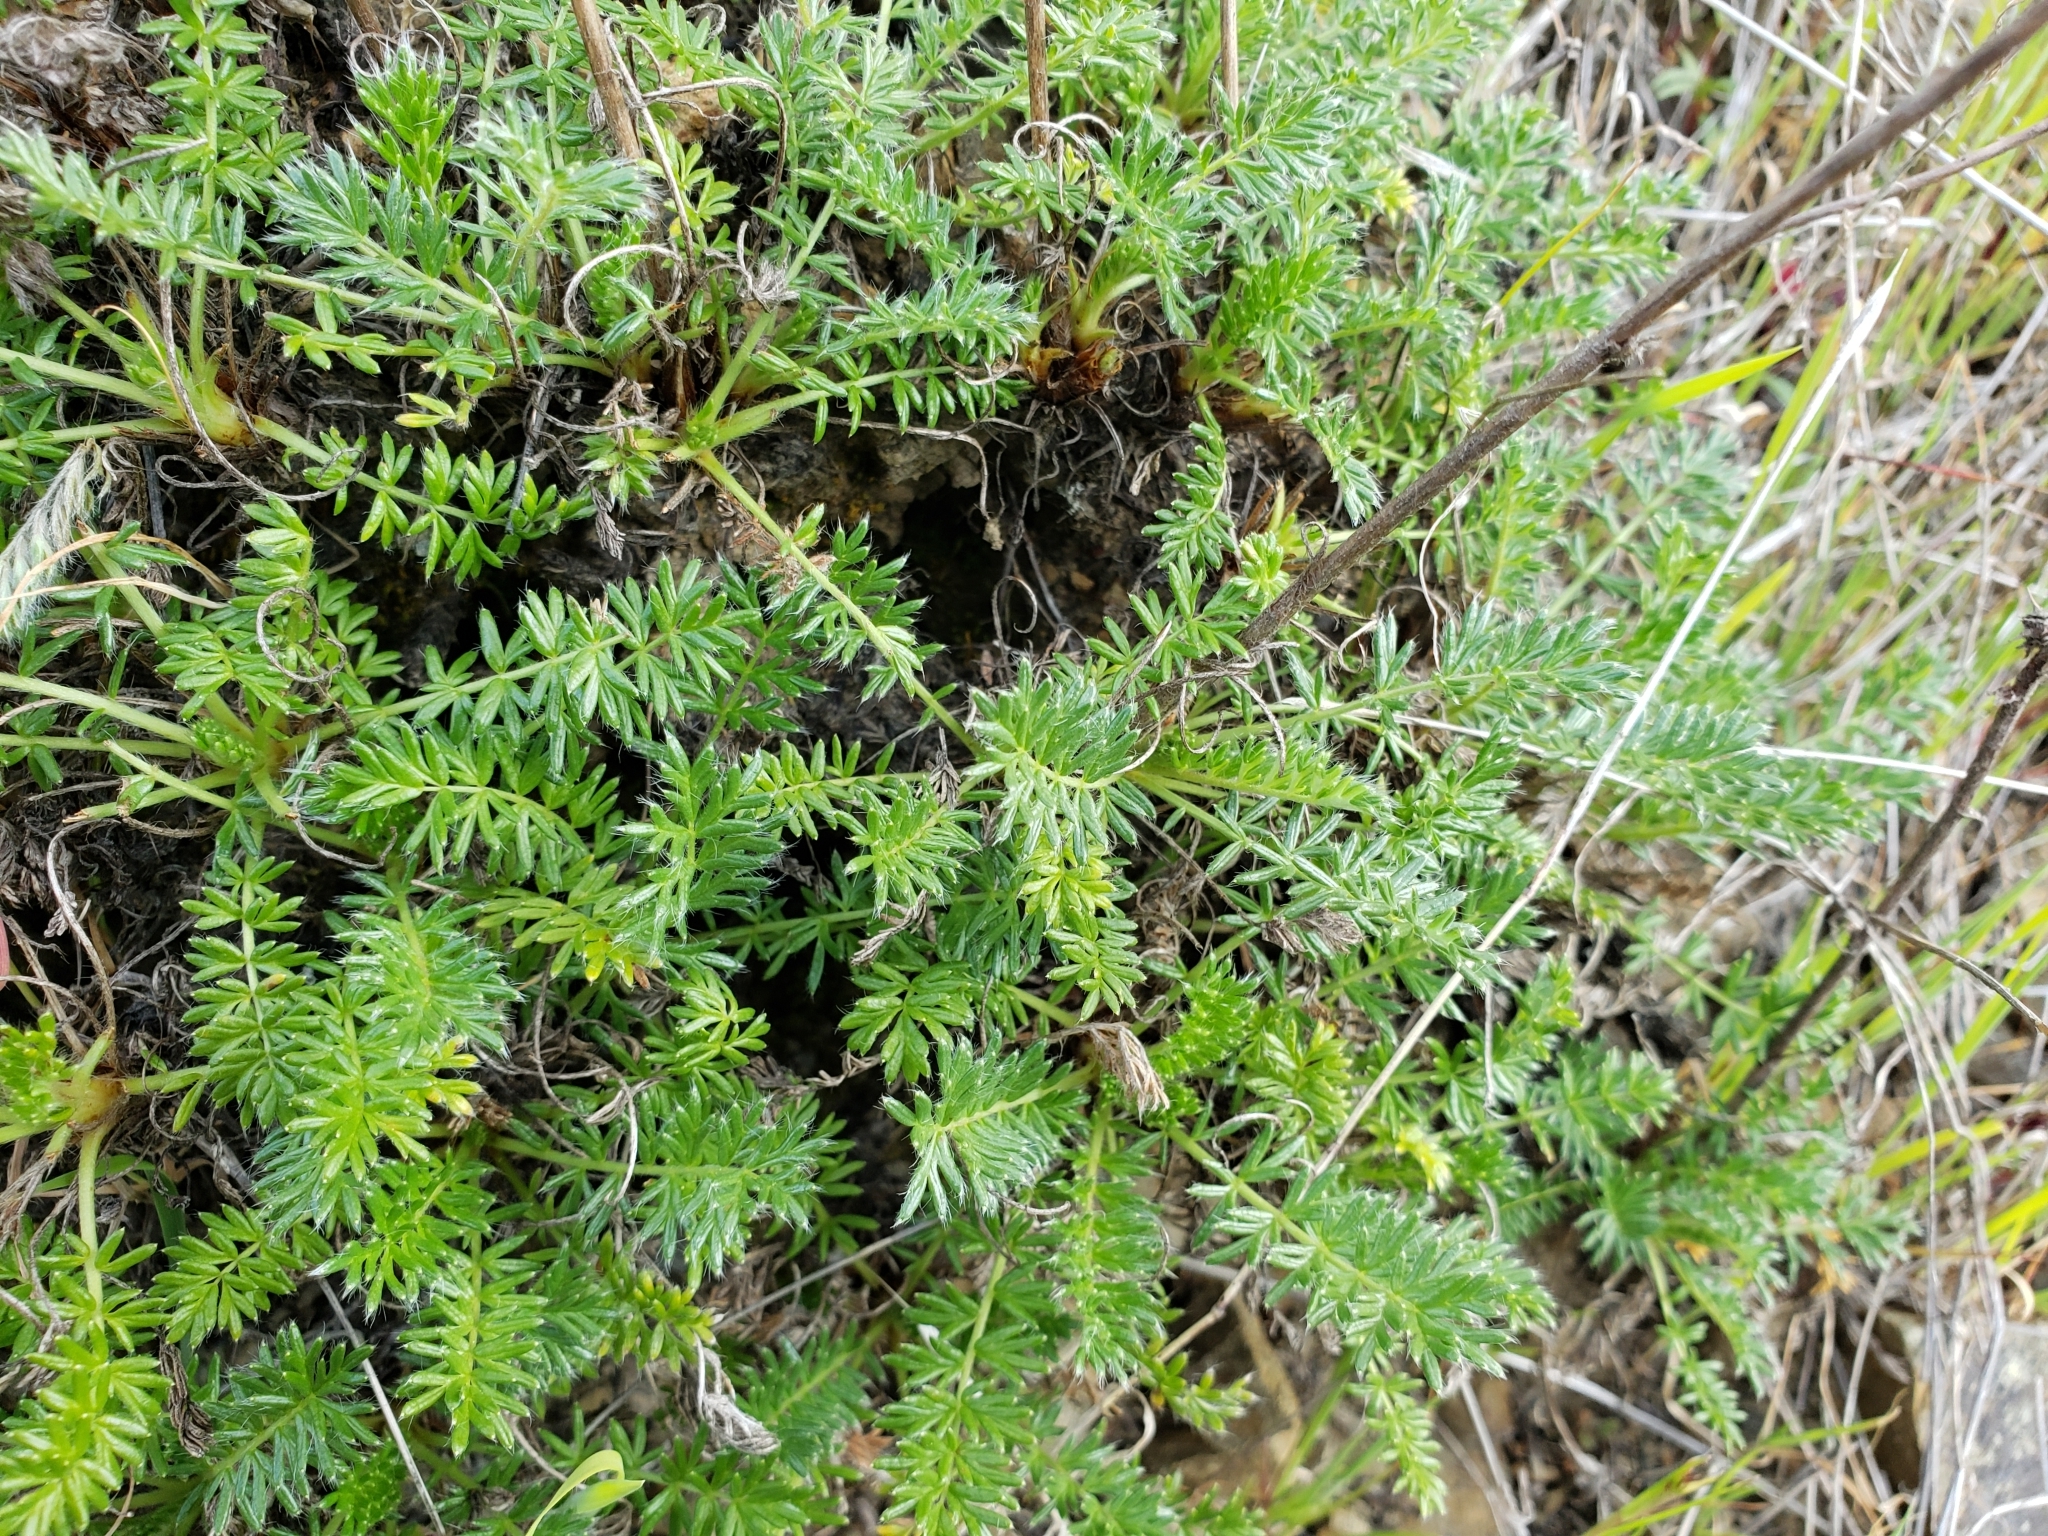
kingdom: Plantae
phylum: Tracheophyta
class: Magnoliopsida
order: Rosales
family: Rosaceae
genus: Acaena
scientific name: Acaena pinnatifida
